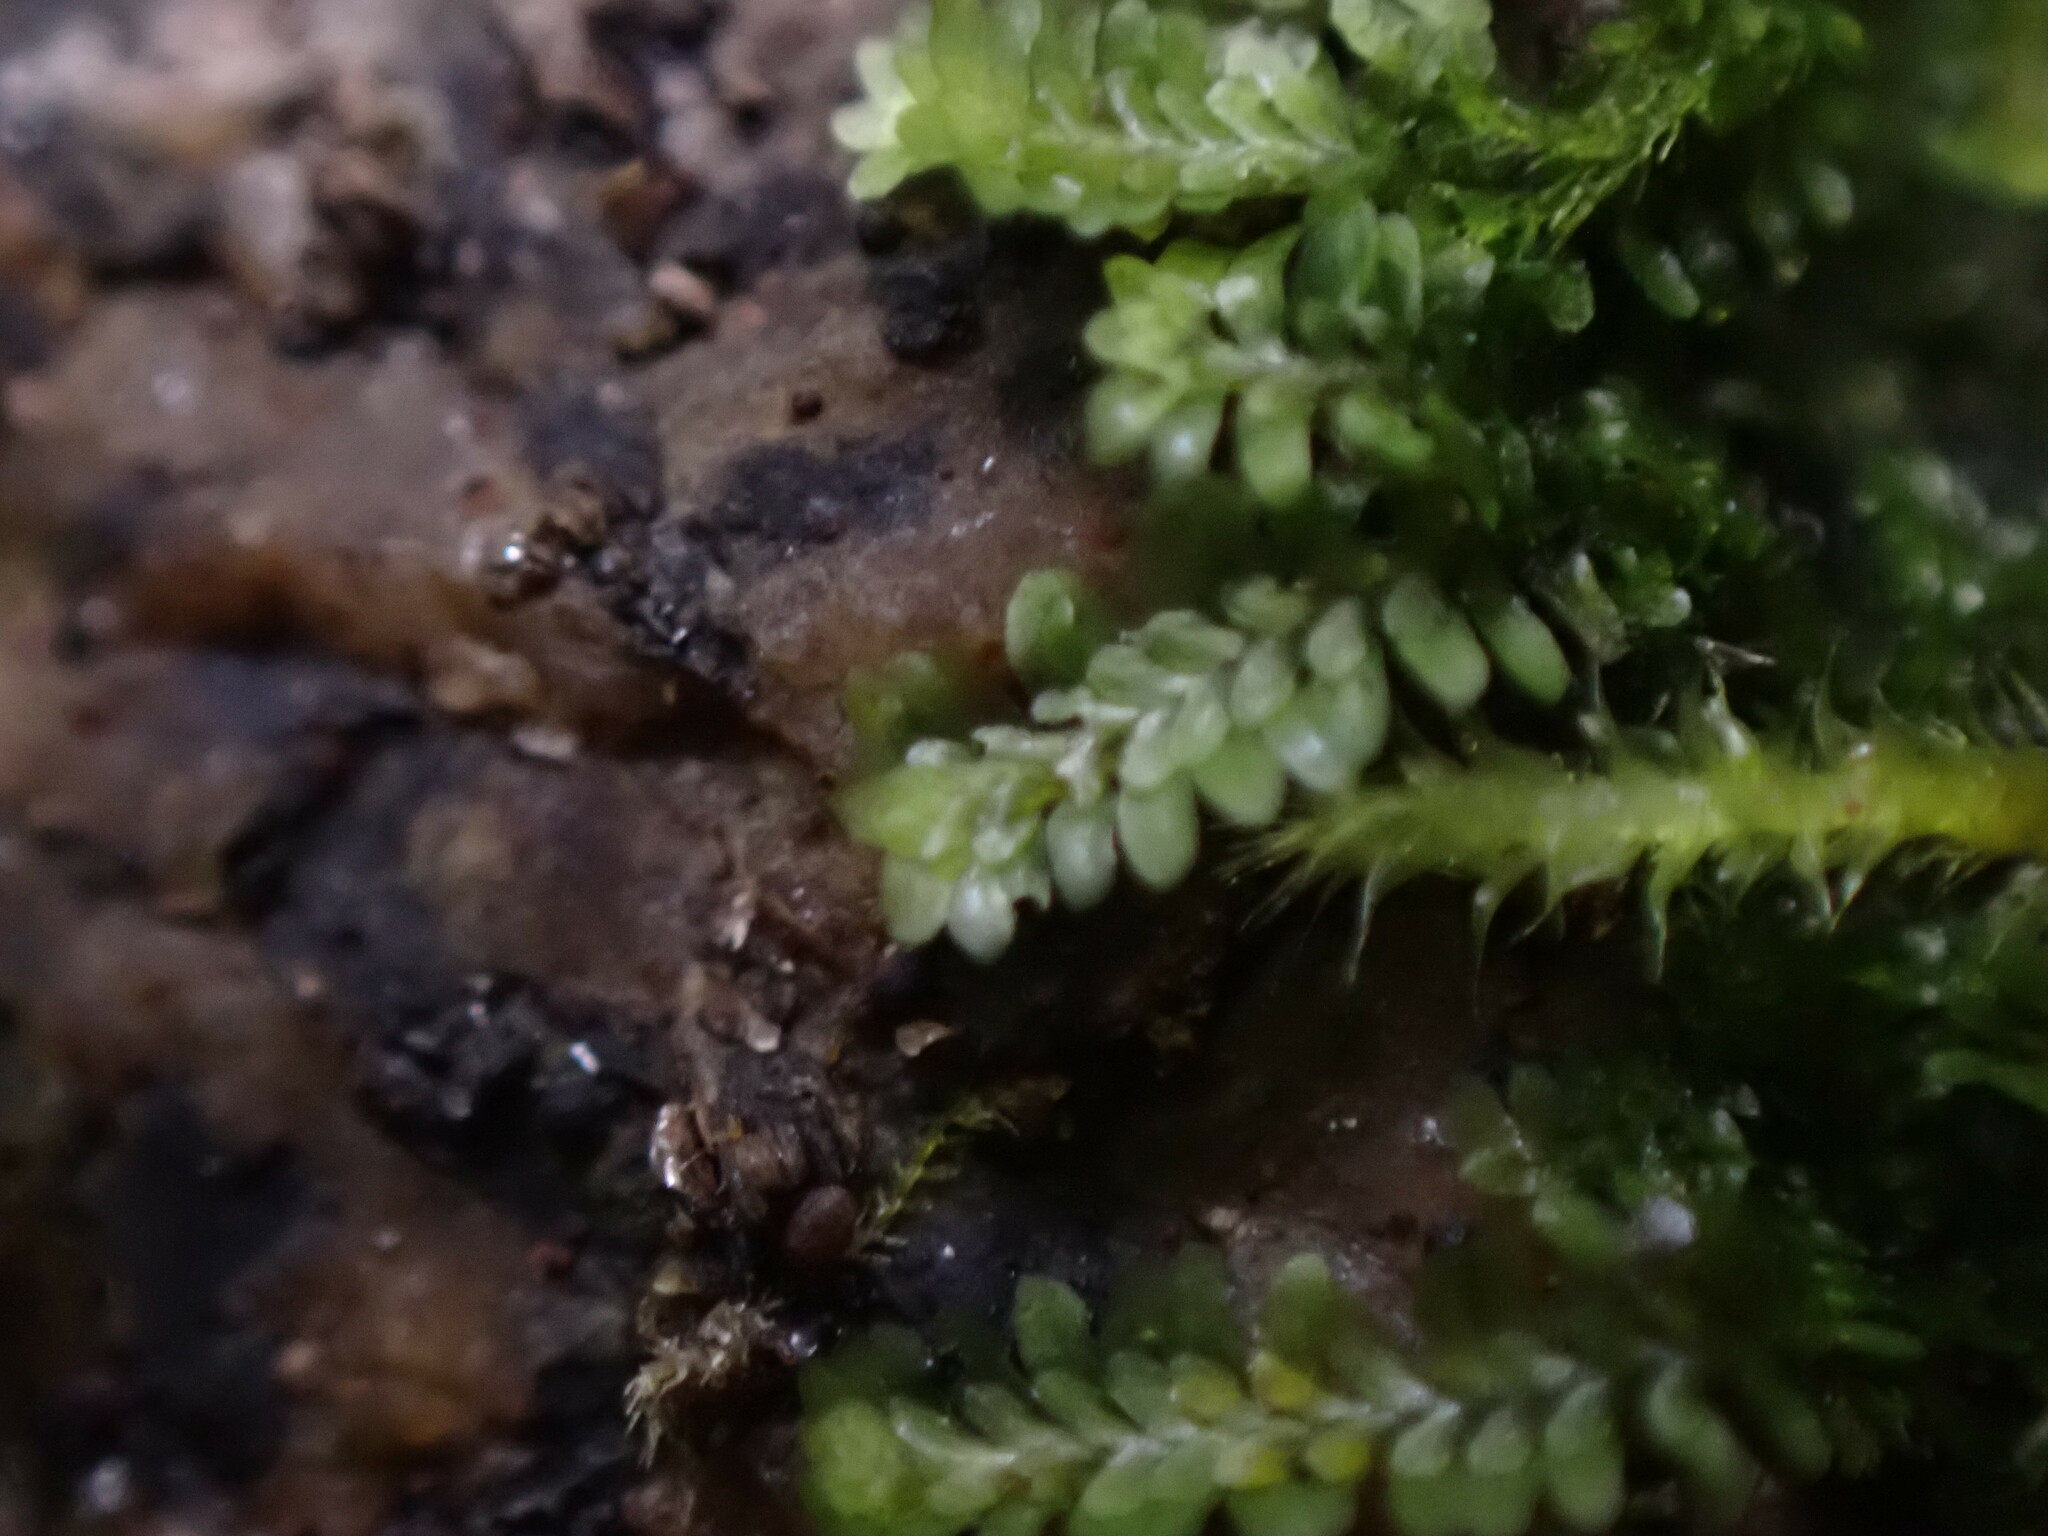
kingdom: Plantae
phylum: Marchantiophyta
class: Jungermanniopsida
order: Jungermanniales
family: Scapaniaceae
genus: Diplophyllum
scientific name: Diplophyllum albicans
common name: White earwort
